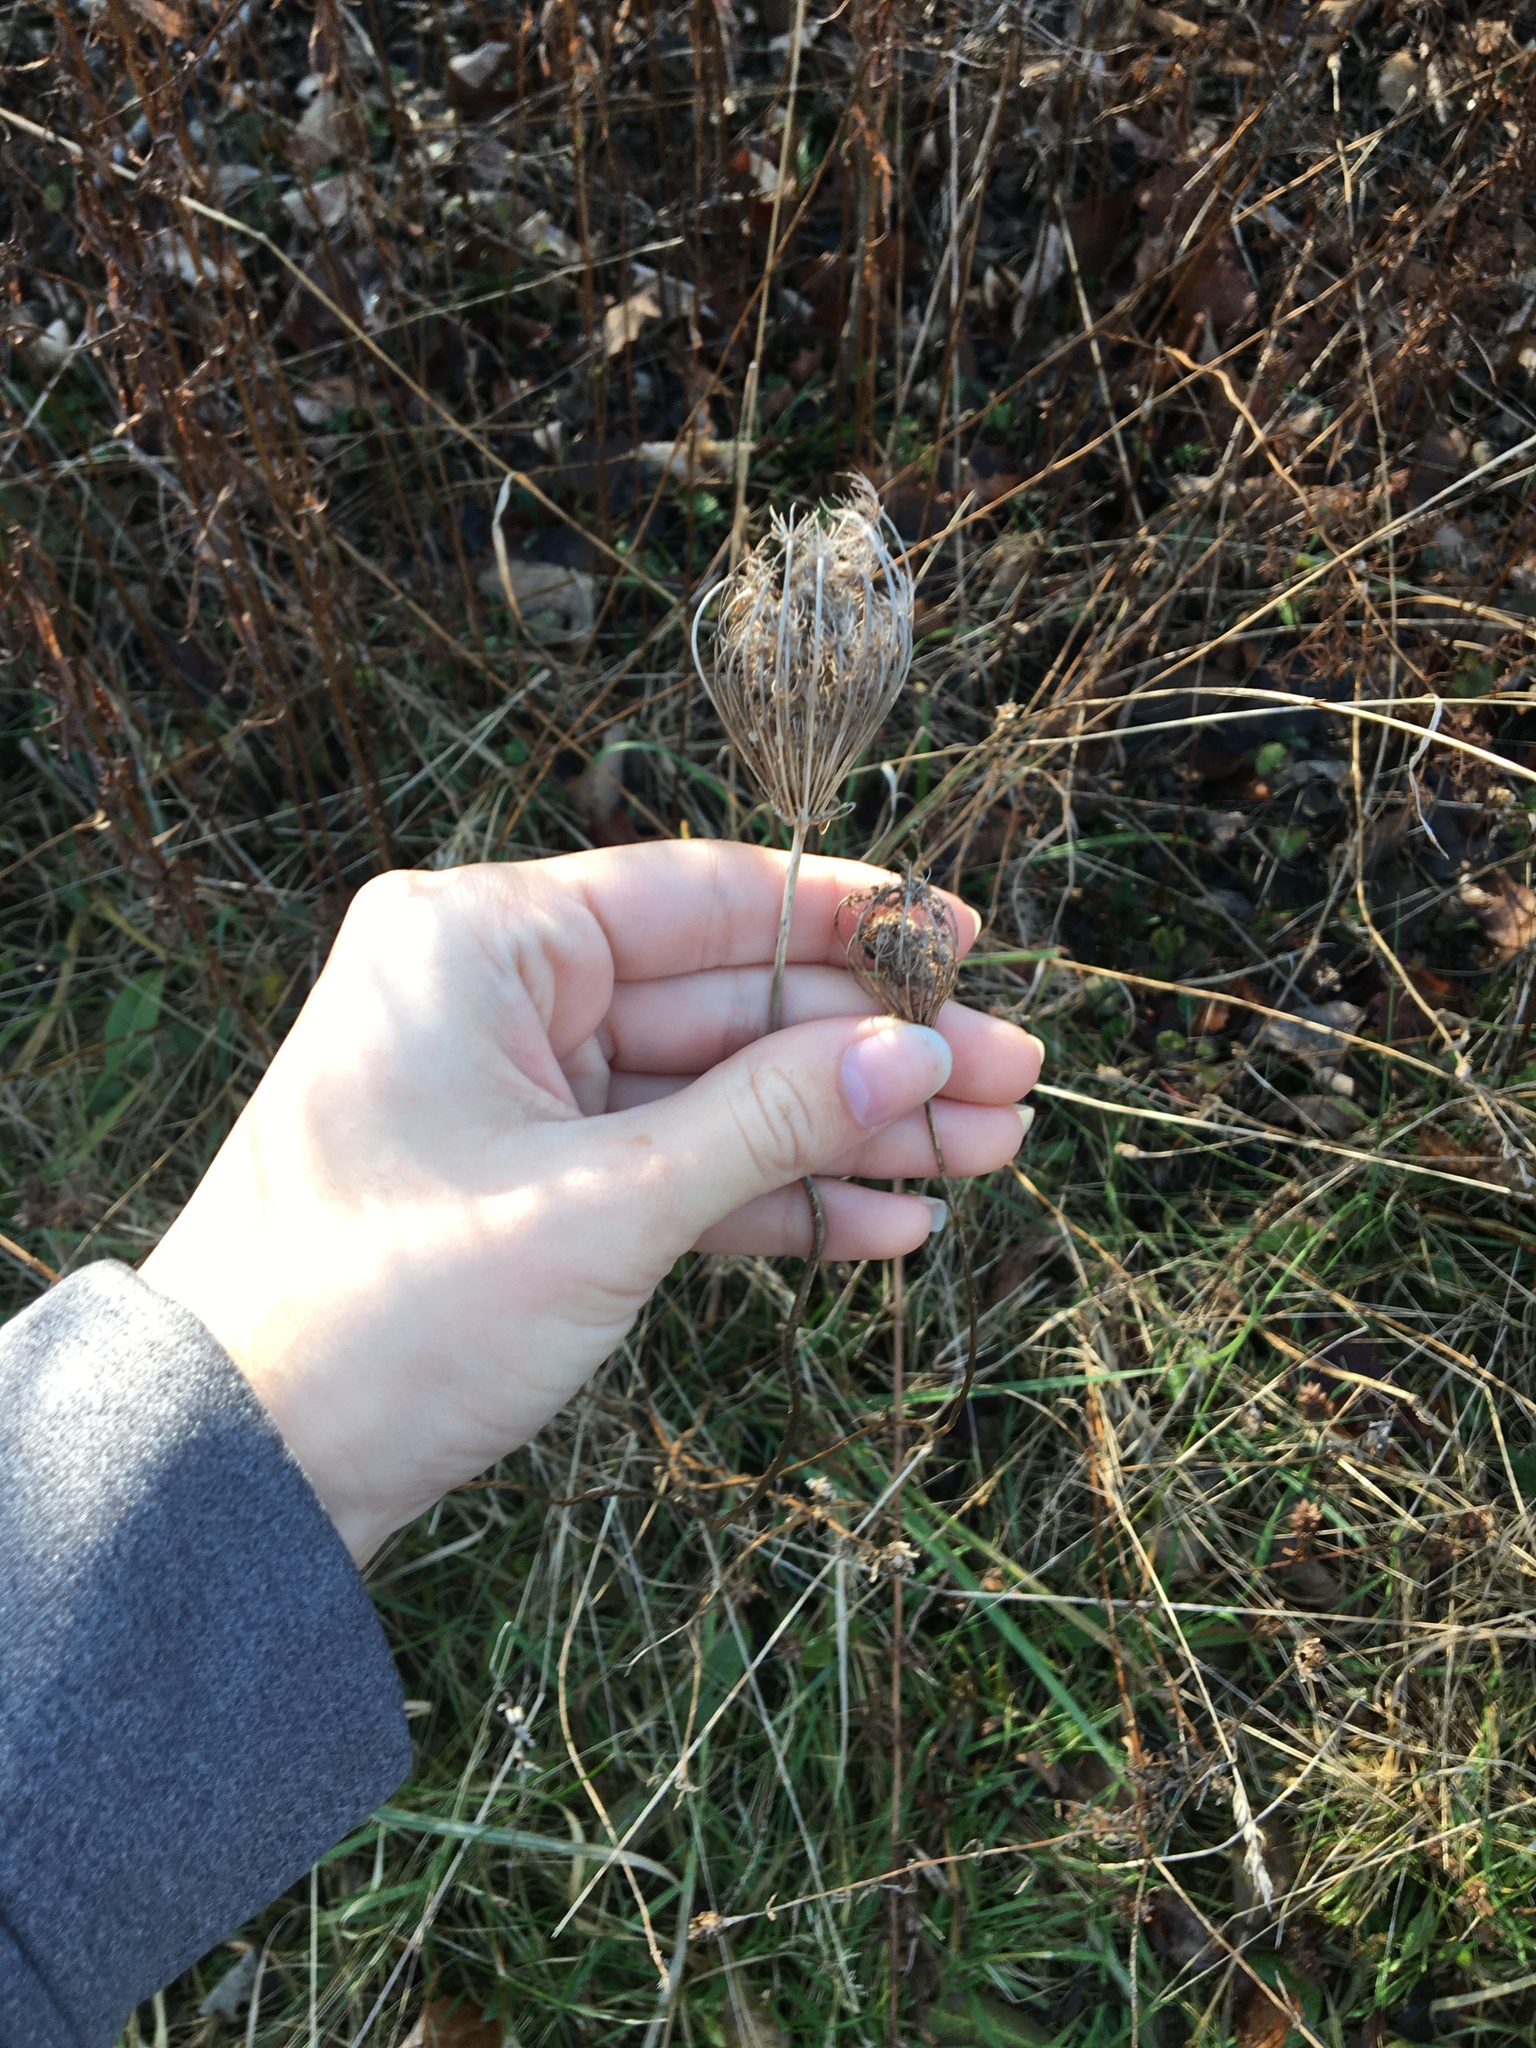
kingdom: Plantae
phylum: Tracheophyta
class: Magnoliopsida
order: Apiales
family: Apiaceae
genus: Daucus
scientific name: Daucus carota
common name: Wild carrot
